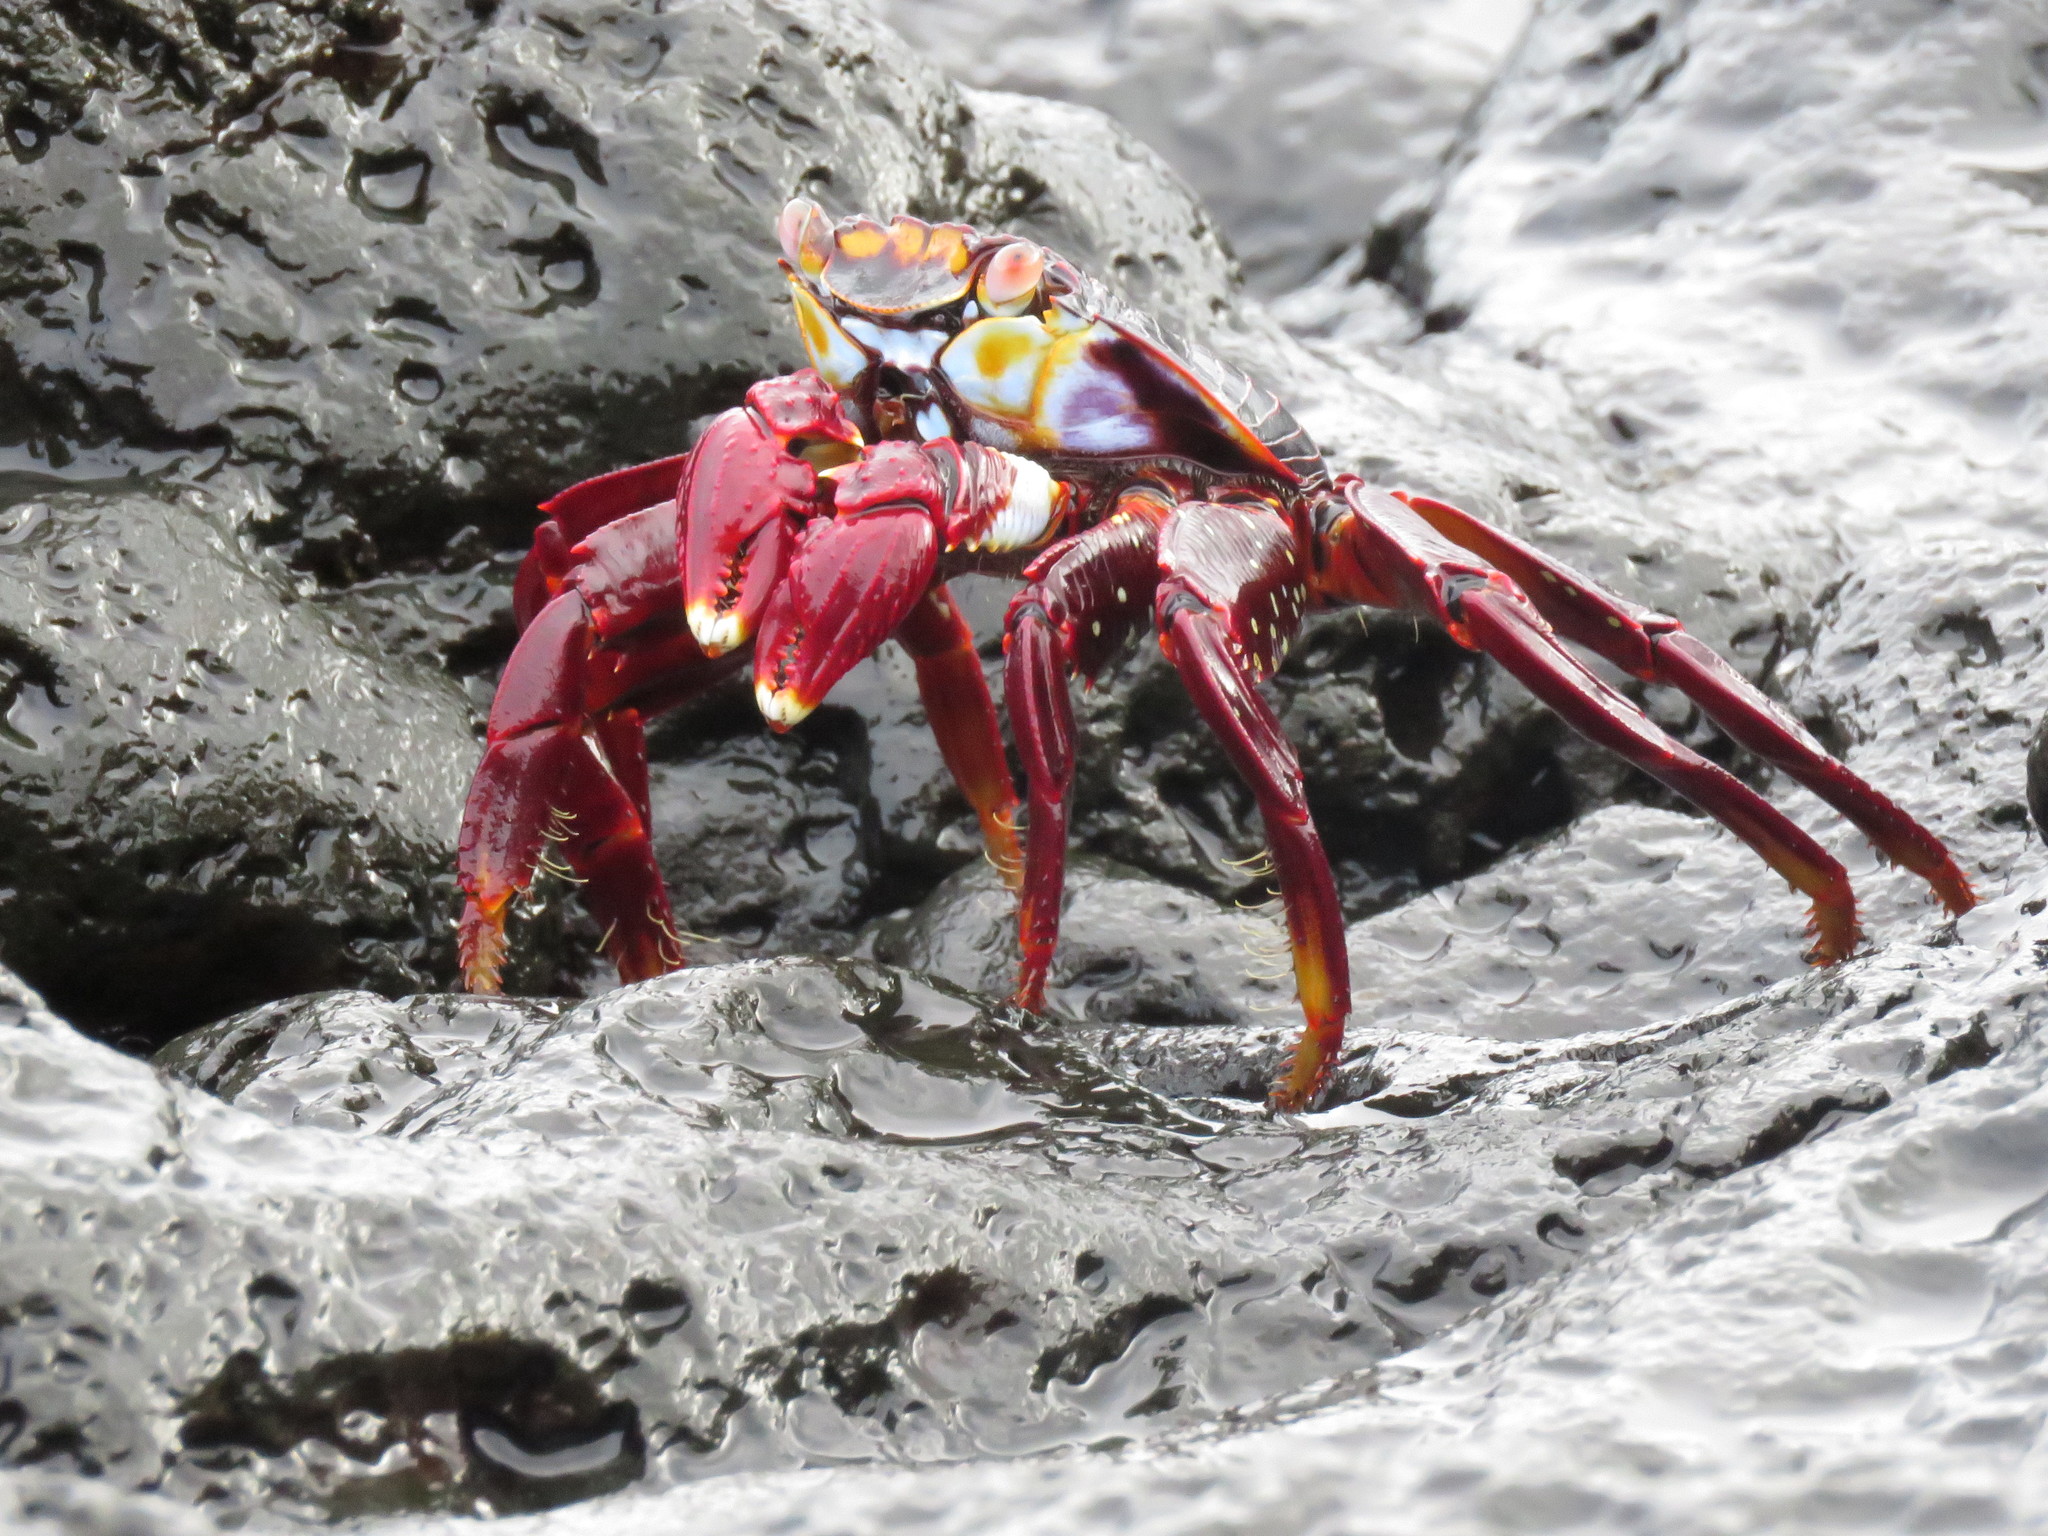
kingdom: Animalia
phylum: Arthropoda
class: Malacostraca
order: Decapoda
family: Grapsidae
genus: Grapsus
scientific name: Grapsus grapsus
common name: Sally lightfoot
